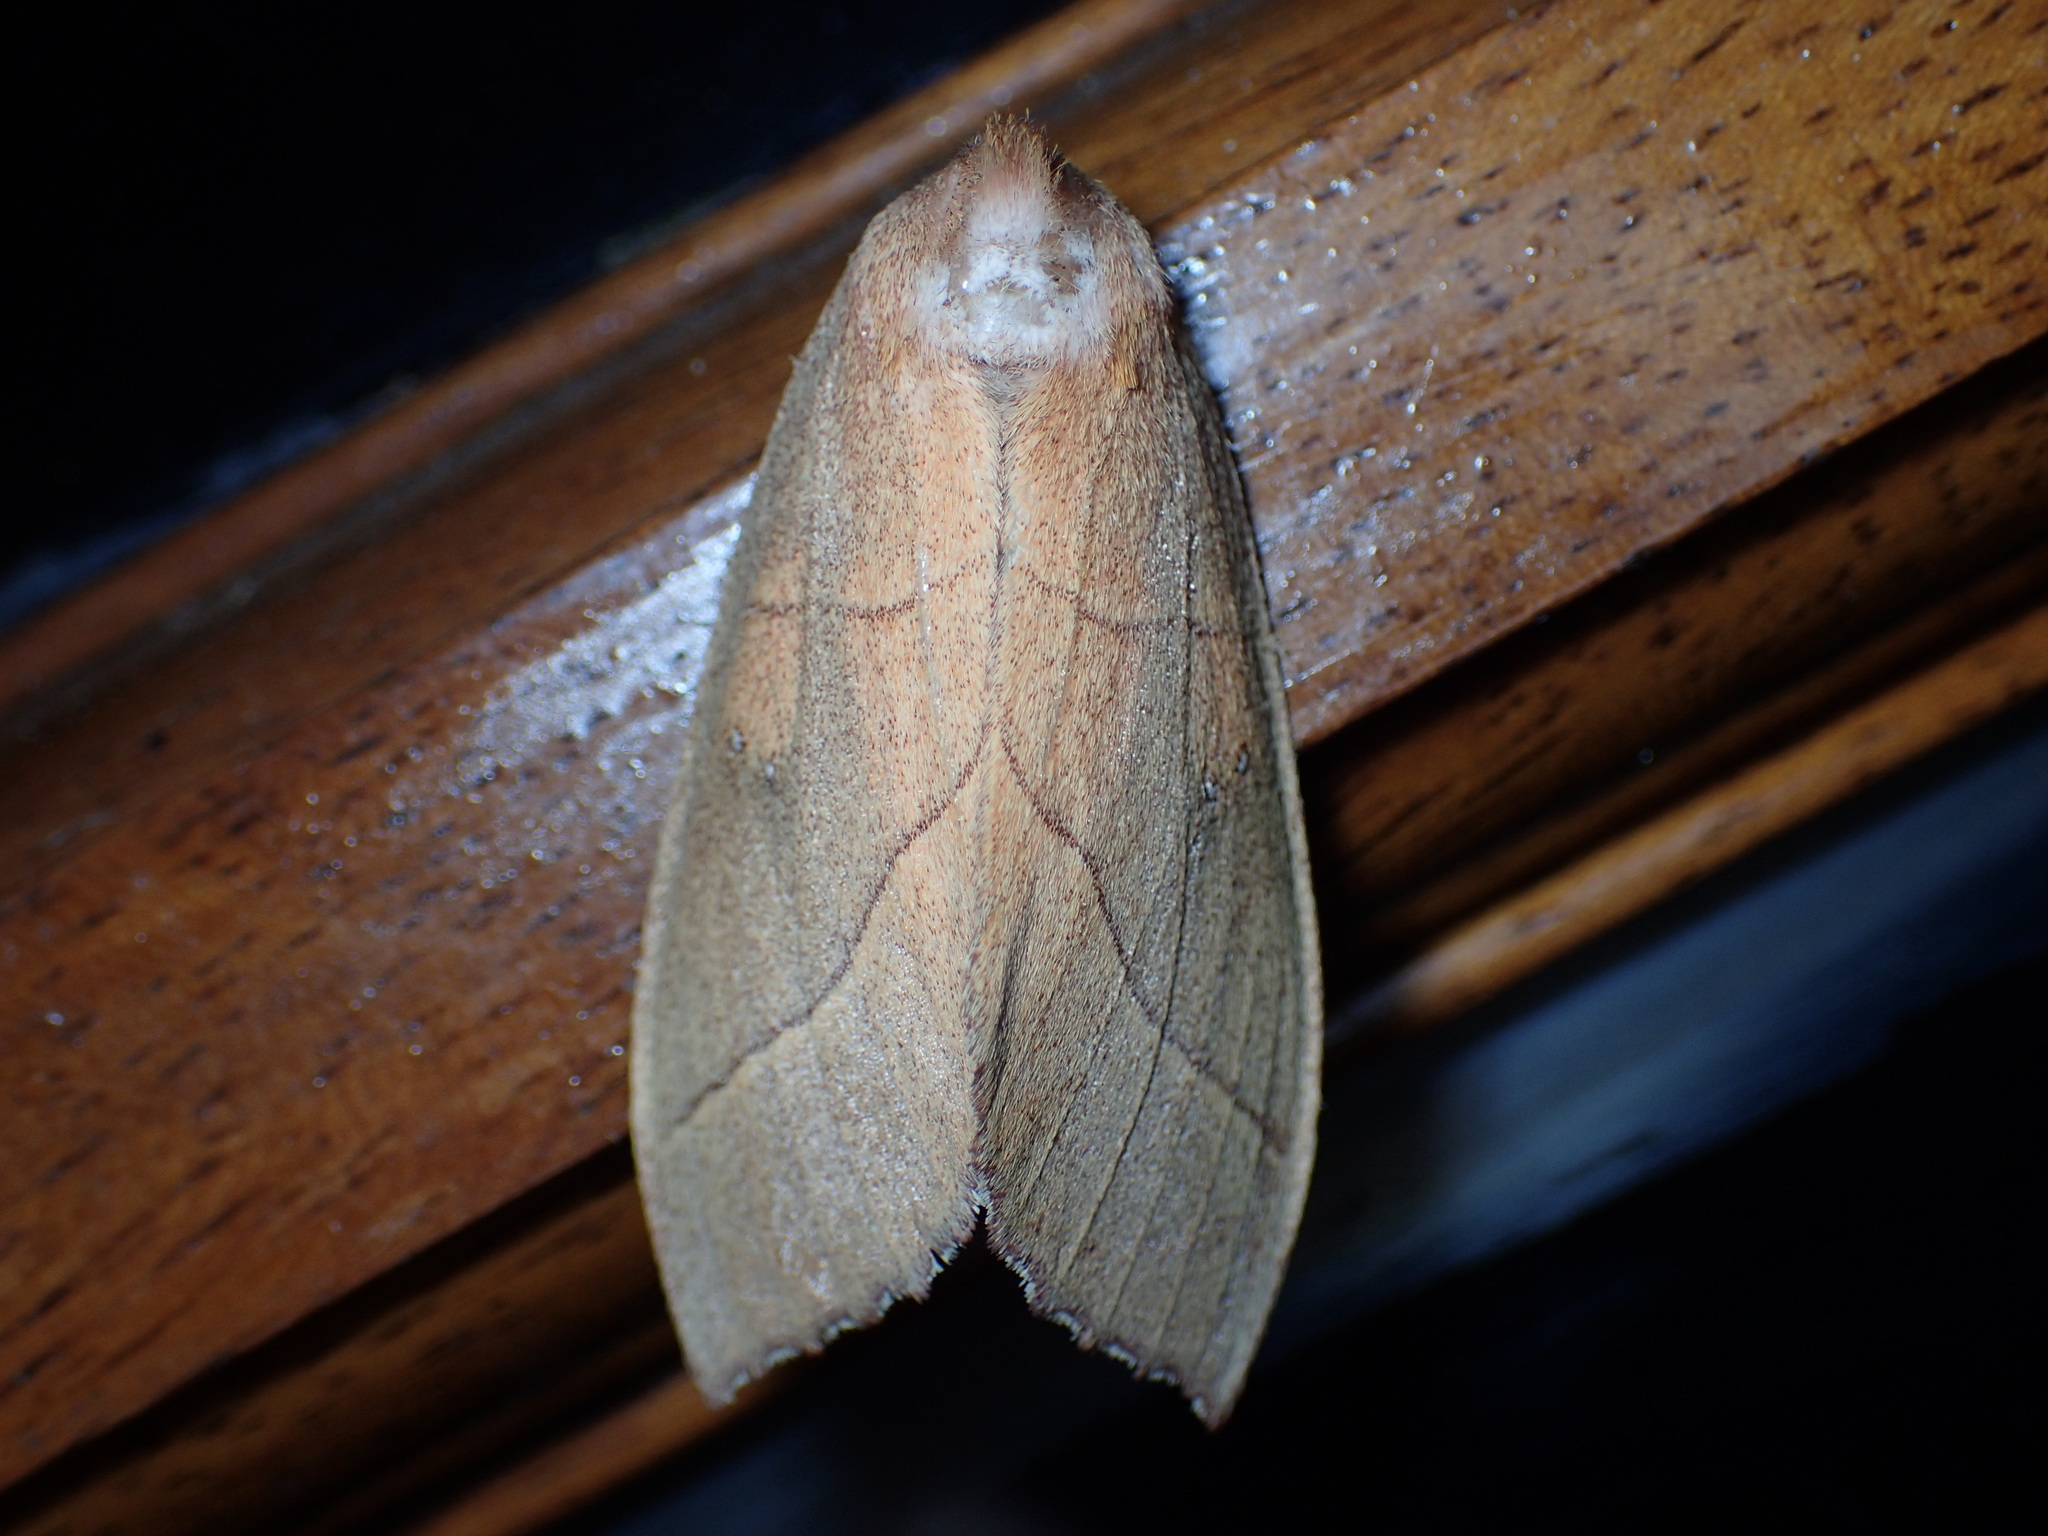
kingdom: Animalia
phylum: Arthropoda
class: Insecta
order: Lepidoptera
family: Notodontidae
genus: Nadata
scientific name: Nadata gibbosa
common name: White-dotted prominent
